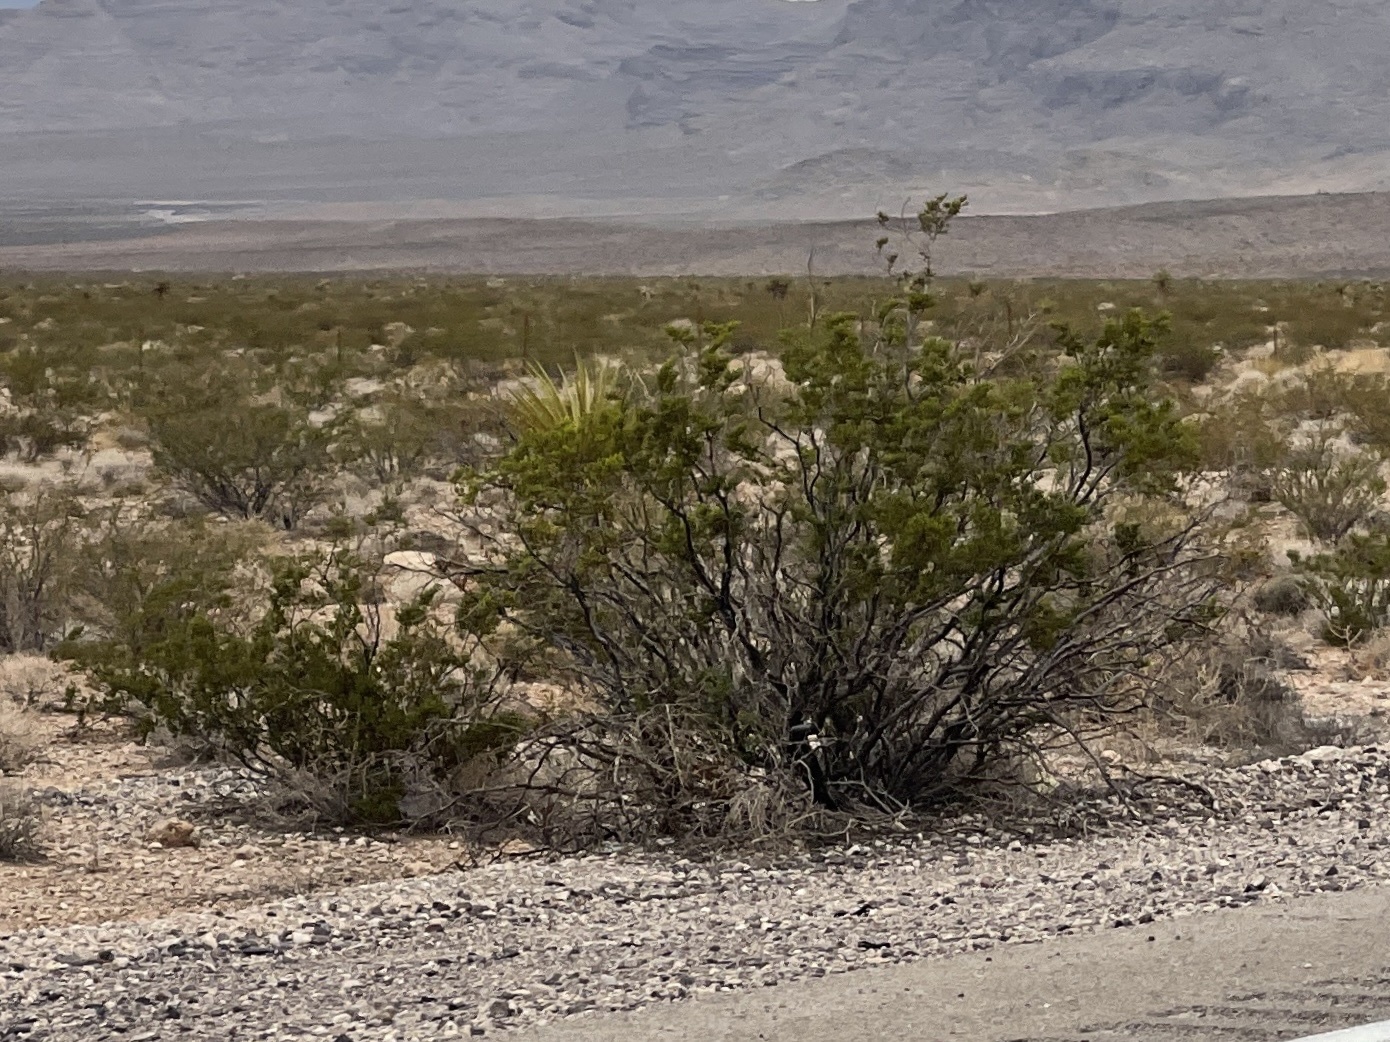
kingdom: Plantae
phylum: Tracheophyta
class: Magnoliopsida
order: Zygophyllales
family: Zygophyllaceae
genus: Larrea
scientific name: Larrea tridentata
